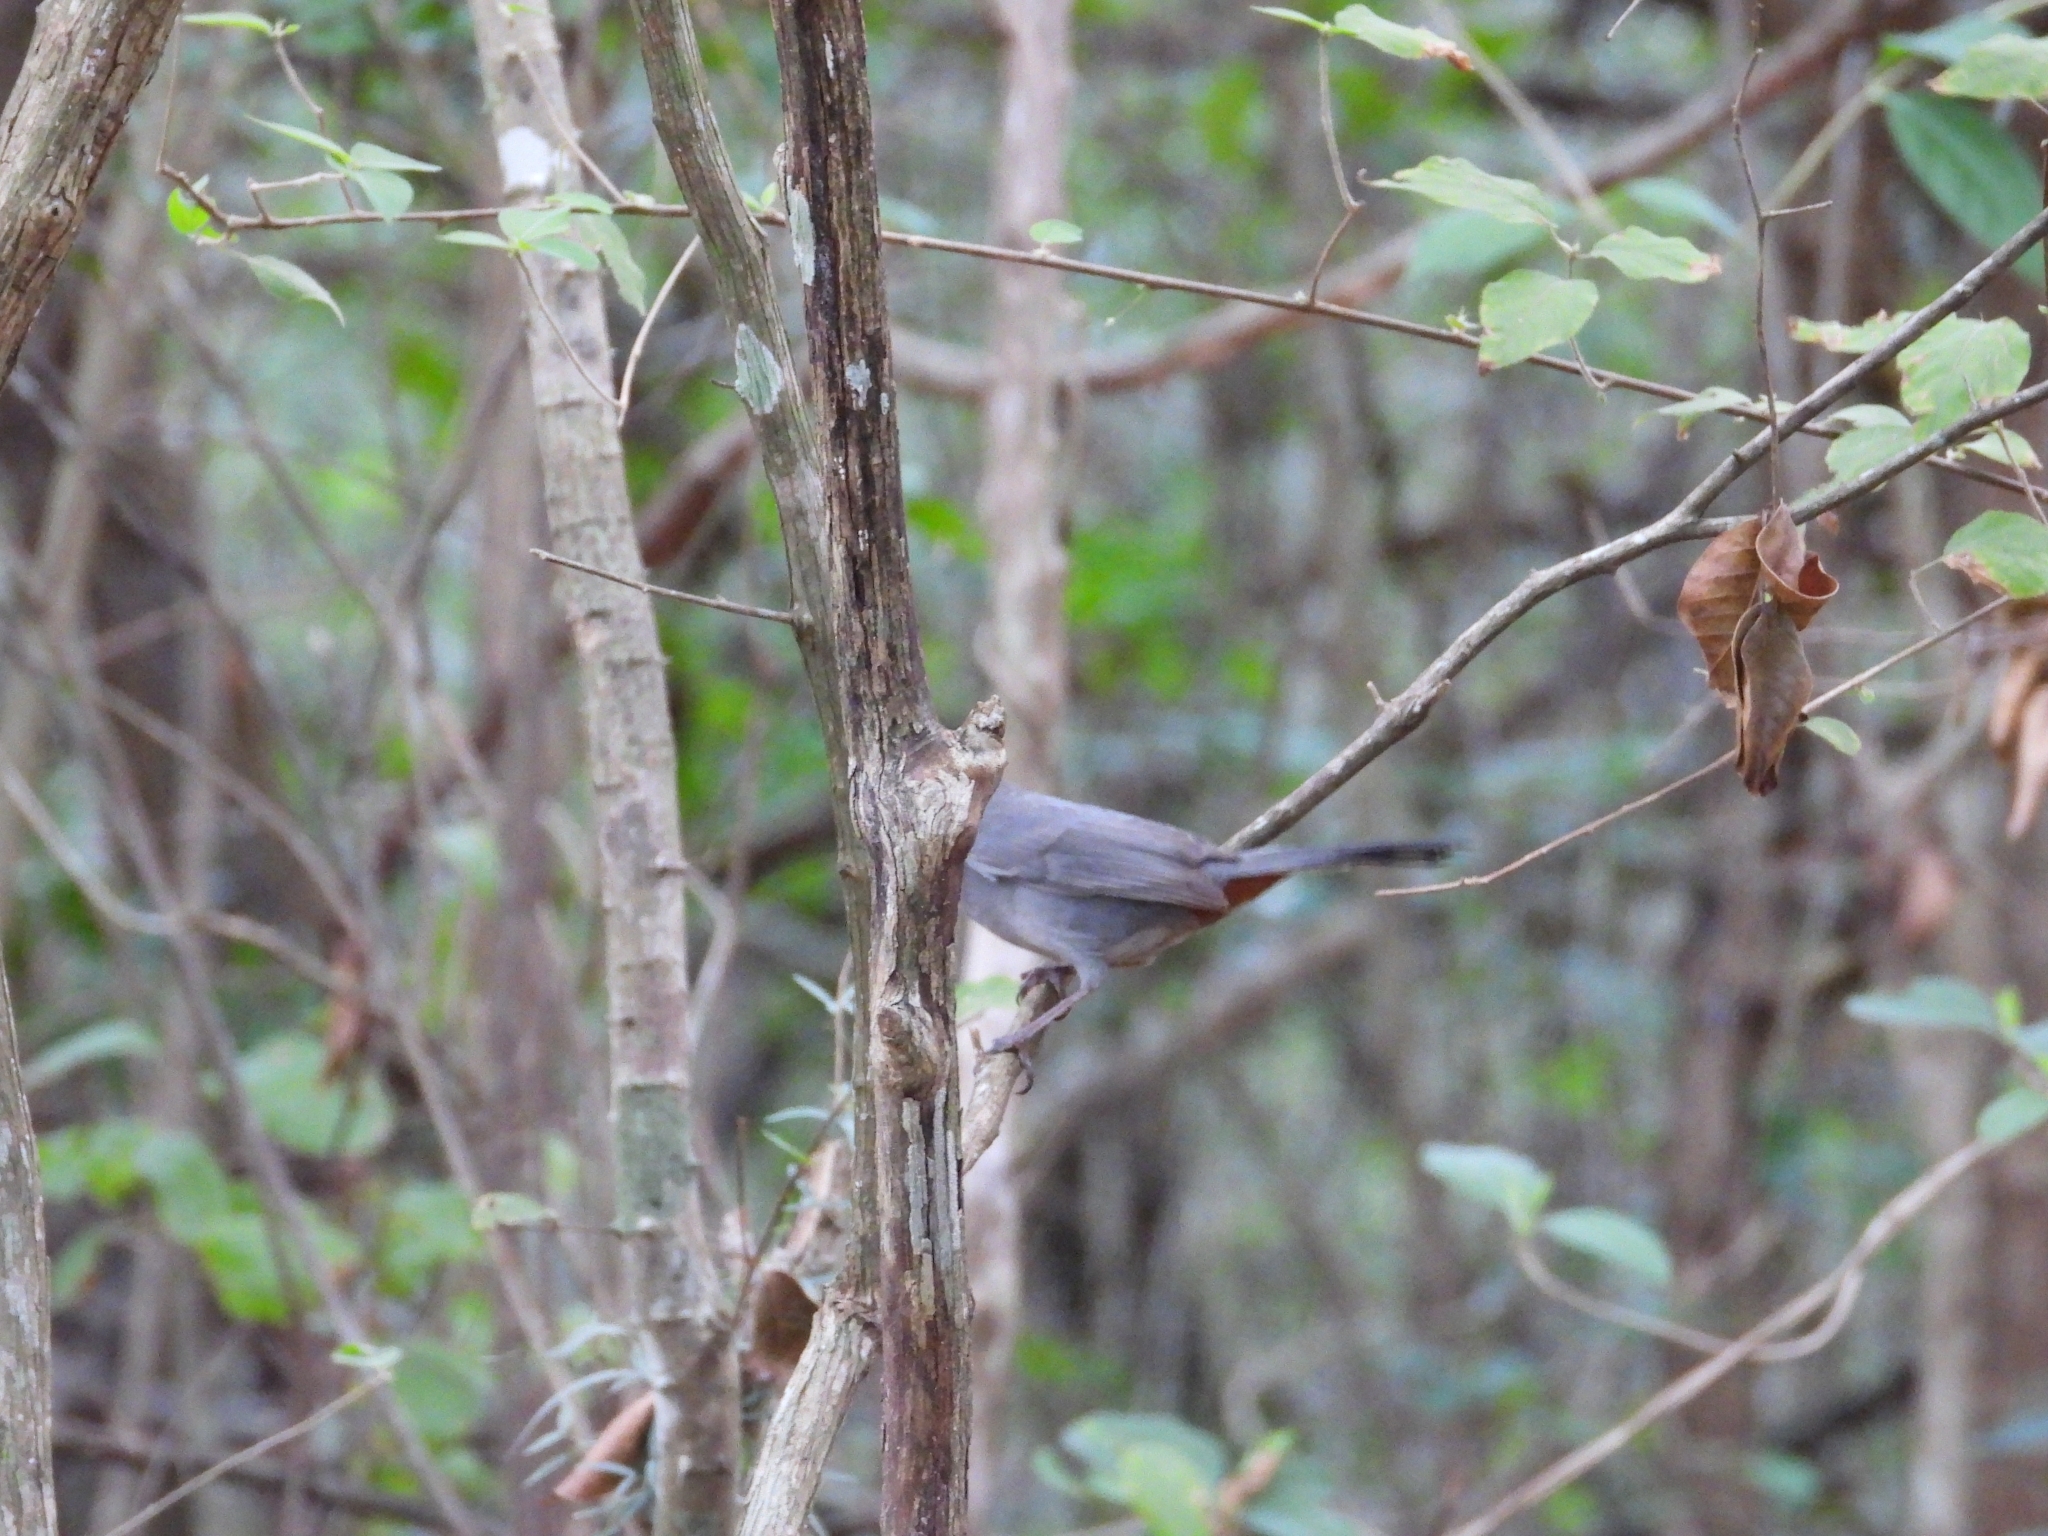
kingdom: Animalia
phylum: Chordata
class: Aves
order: Passeriformes
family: Mimidae
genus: Dumetella
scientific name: Dumetella carolinensis
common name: Gray catbird
